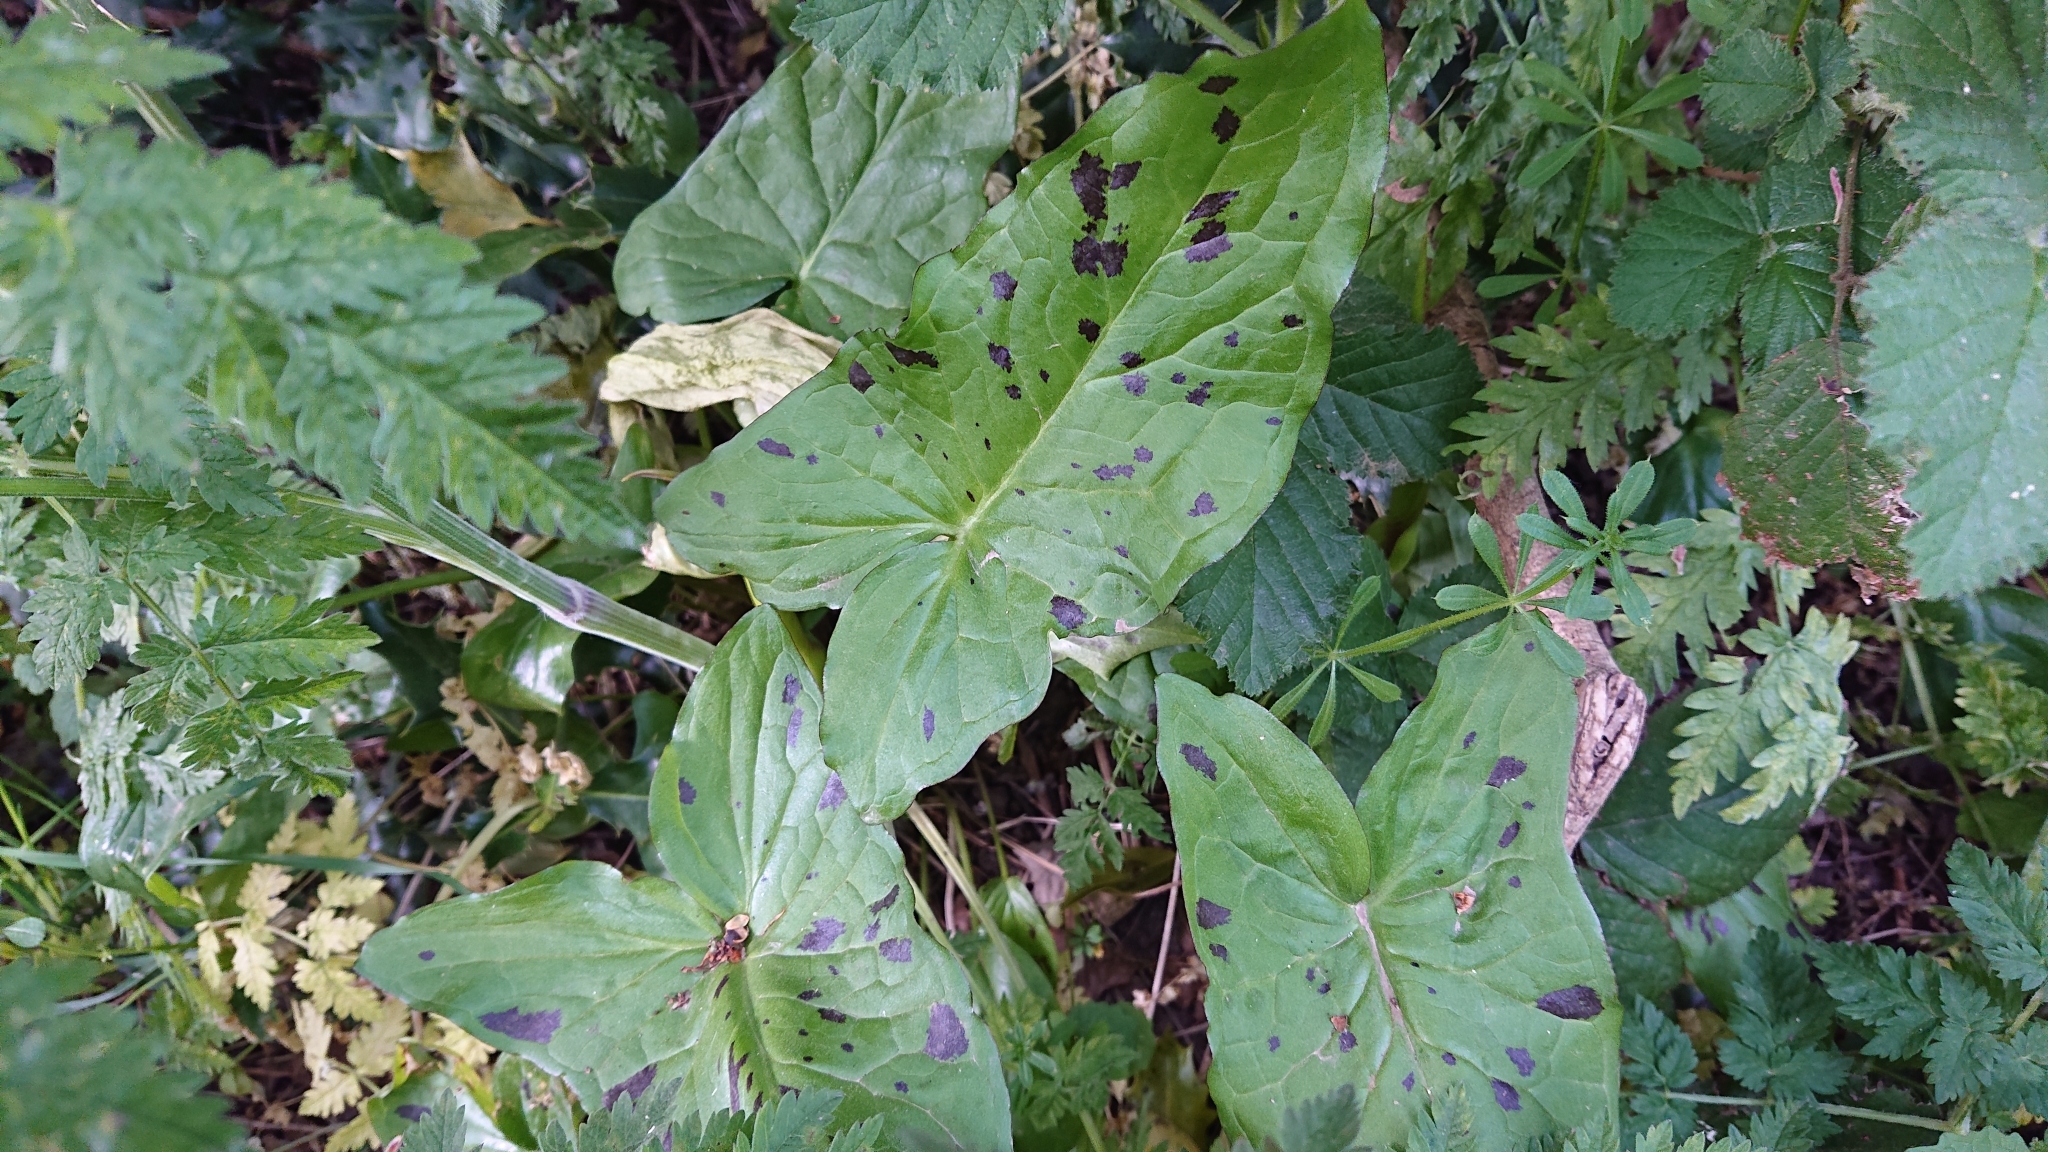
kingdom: Plantae
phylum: Tracheophyta
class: Liliopsida
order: Alismatales
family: Araceae
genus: Arum
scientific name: Arum maculatum
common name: Lords-and-ladies
